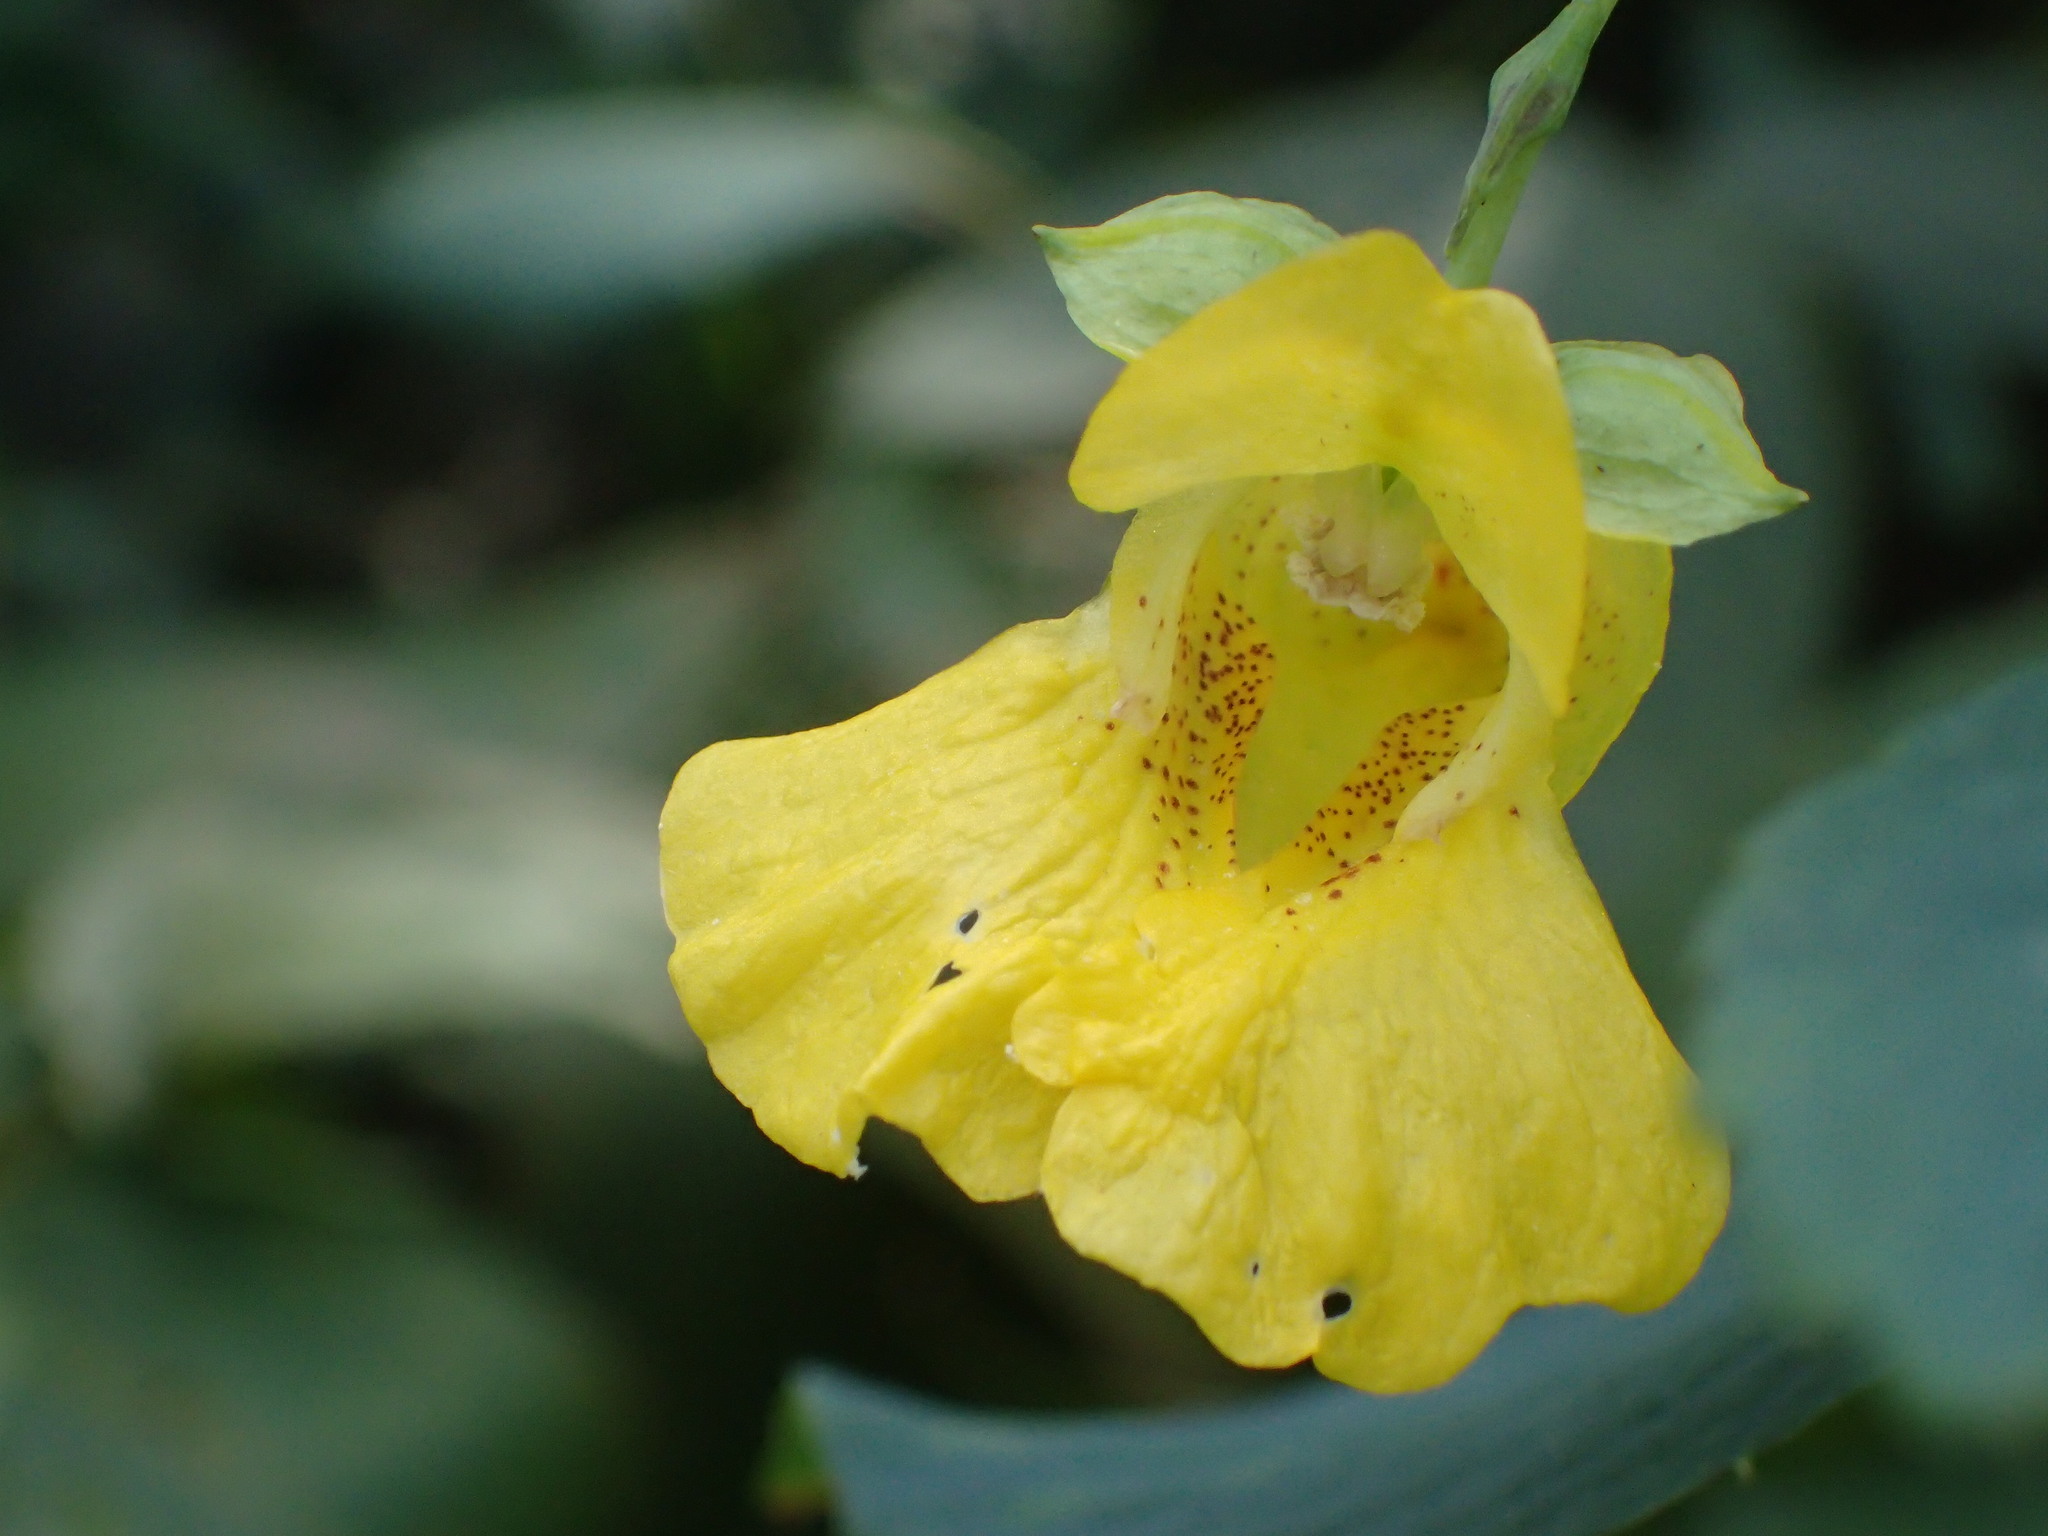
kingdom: Plantae
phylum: Tracheophyta
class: Magnoliopsida
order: Ericales
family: Balsaminaceae
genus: Impatiens
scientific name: Impatiens pallida
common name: Pale snapweed
